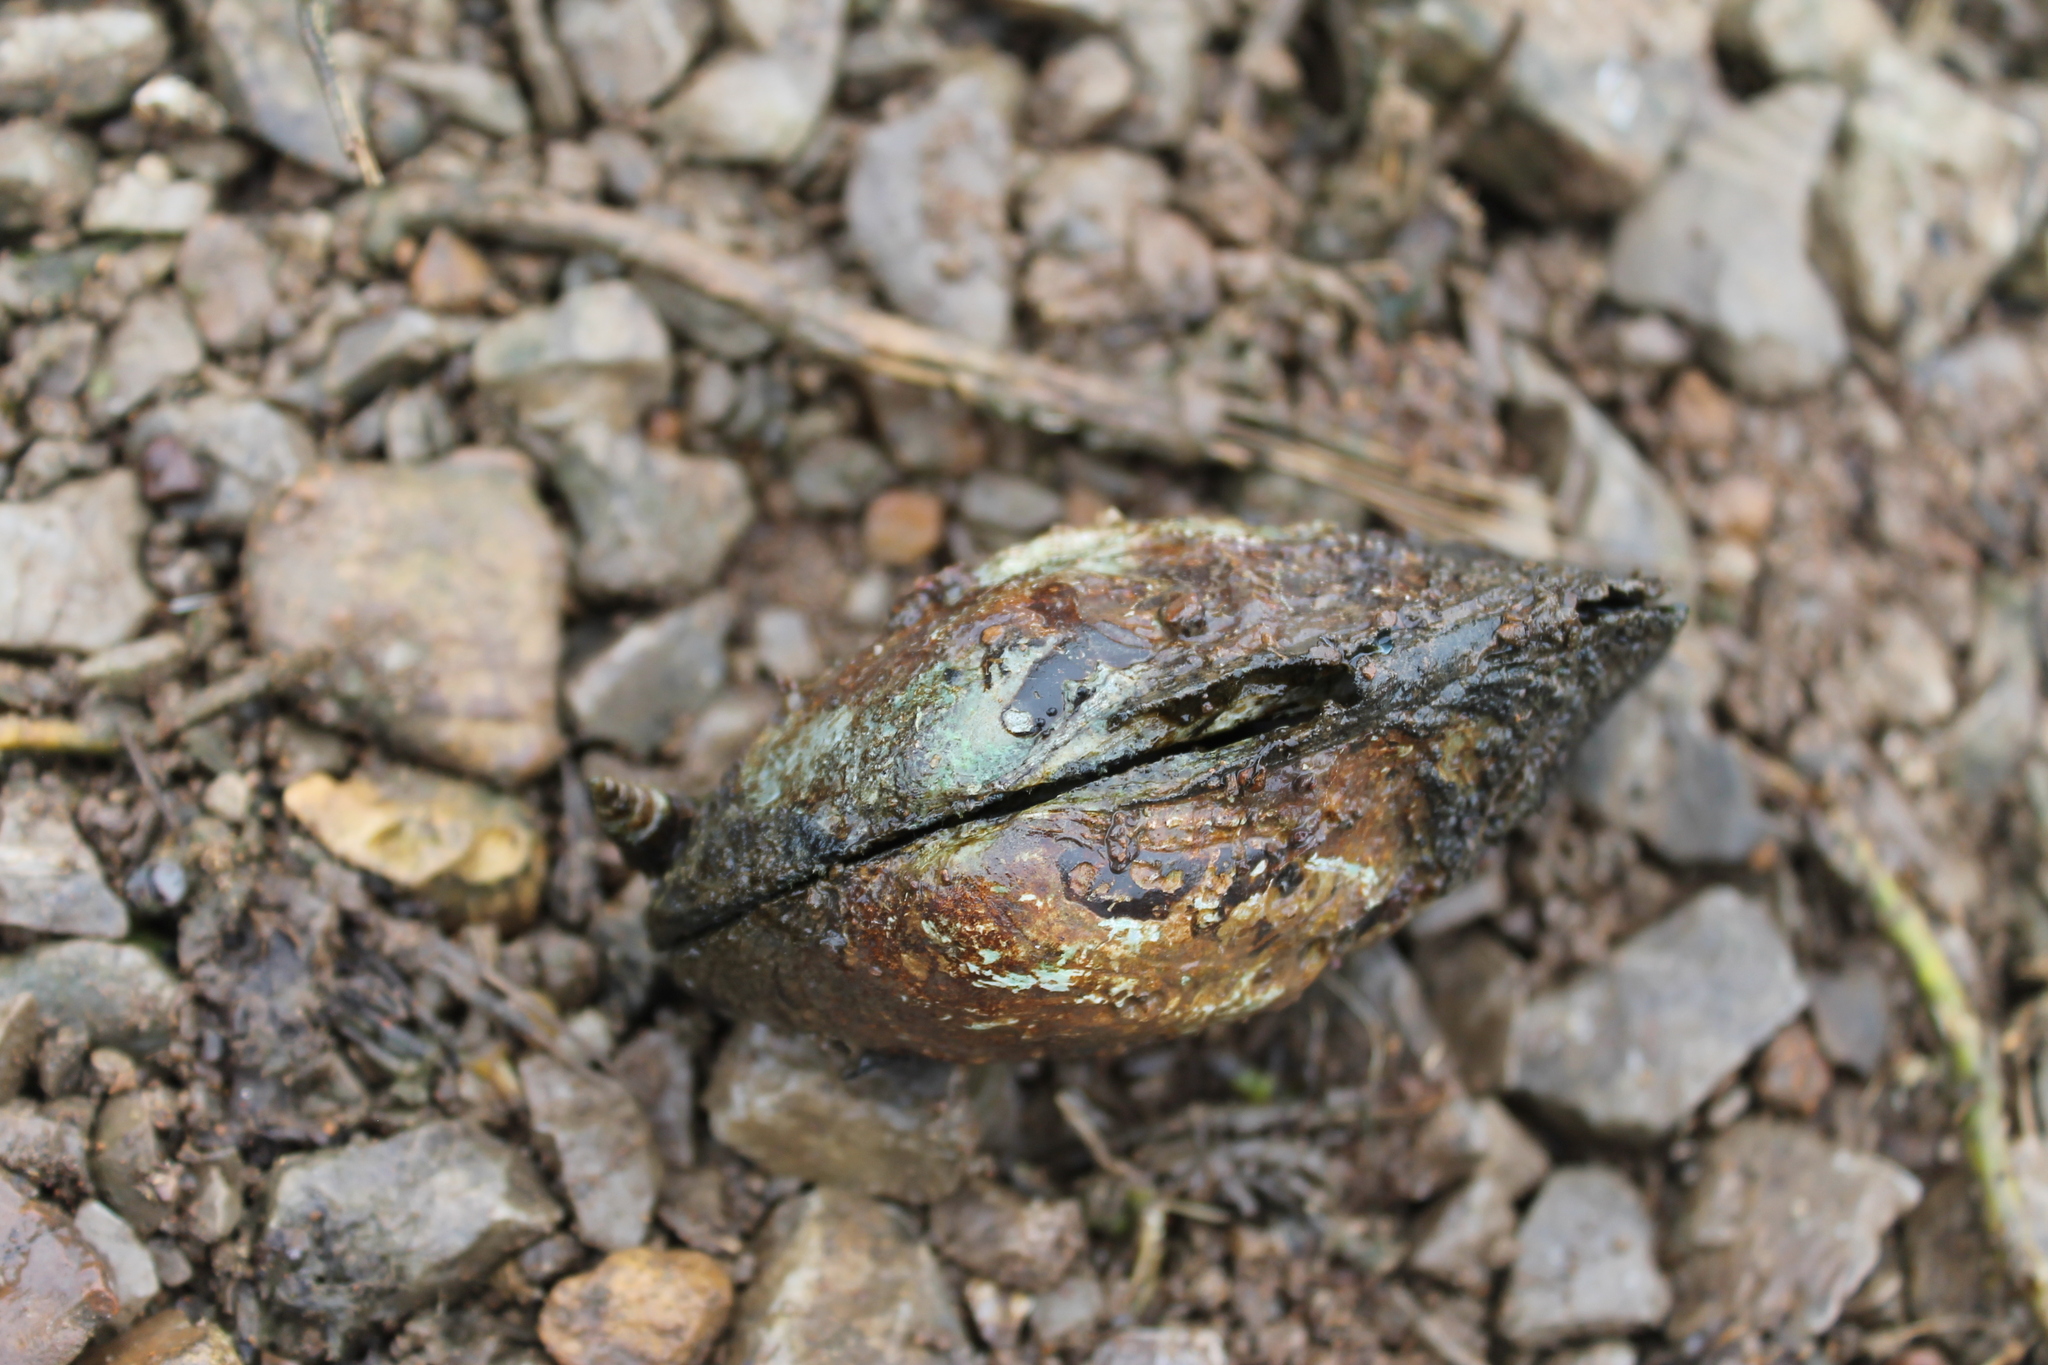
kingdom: Animalia
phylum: Mollusca
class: Bivalvia
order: Unionida
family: Unionidae
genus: Amblema
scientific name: Amblema plicata
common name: Threeridge
